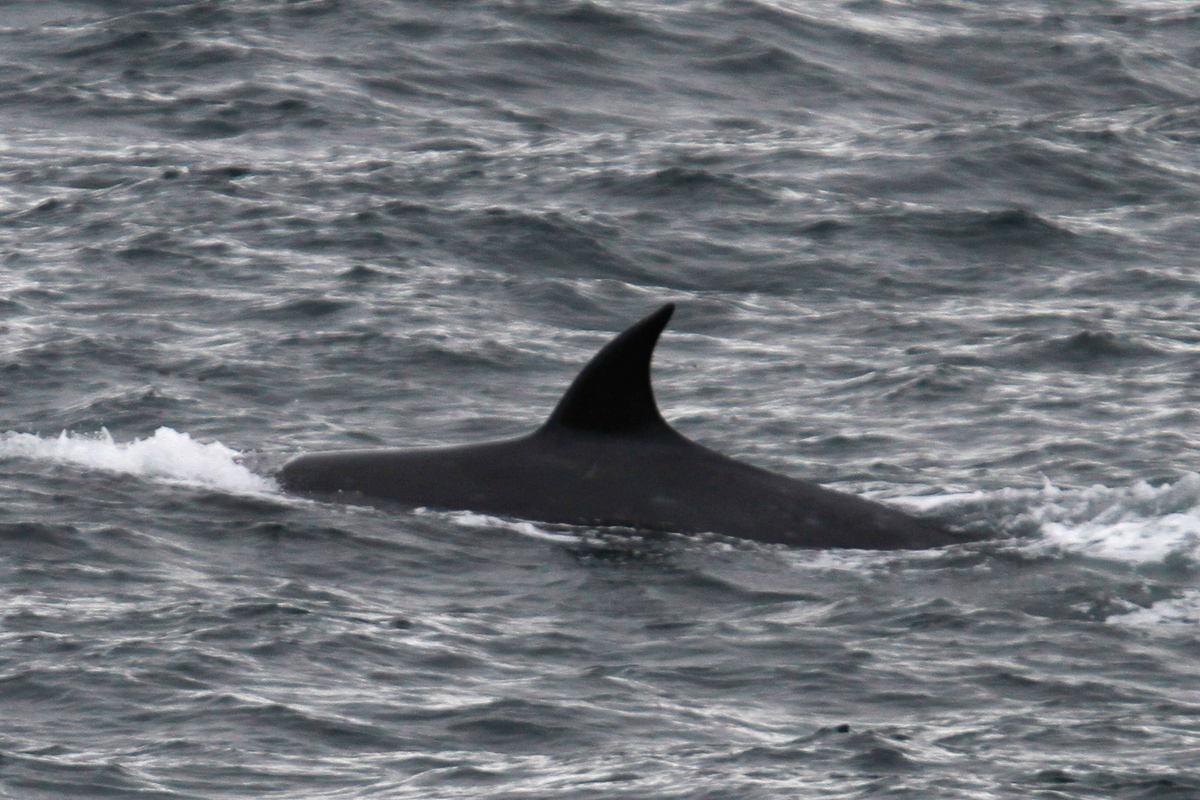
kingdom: Animalia
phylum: Chordata
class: Mammalia
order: Cetacea
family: Balaenopteridae
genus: Balaenoptera
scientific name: Balaenoptera borealis
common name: Sei whale
